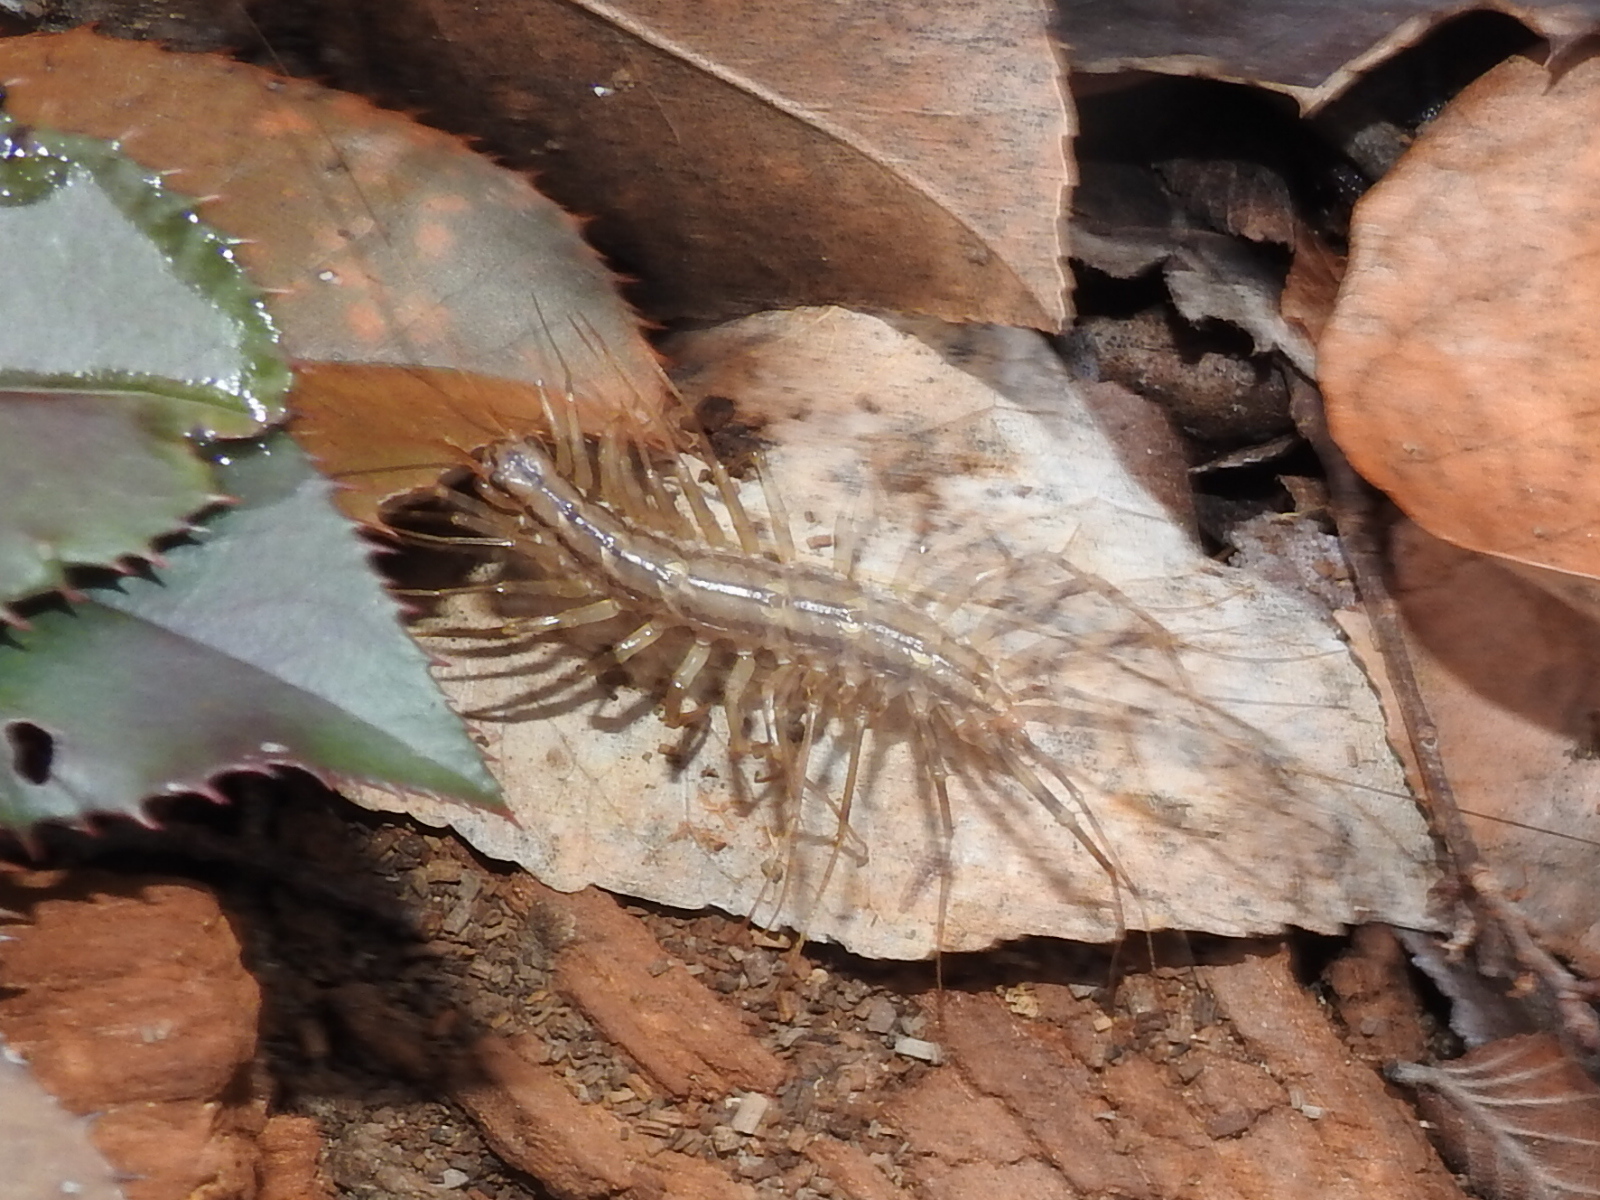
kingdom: Animalia
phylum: Arthropoda
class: Chilopoda
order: Scutigeromorpha
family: Scutigeridae
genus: Scutigera
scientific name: Scutigera coleoptrata
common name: House centipede
